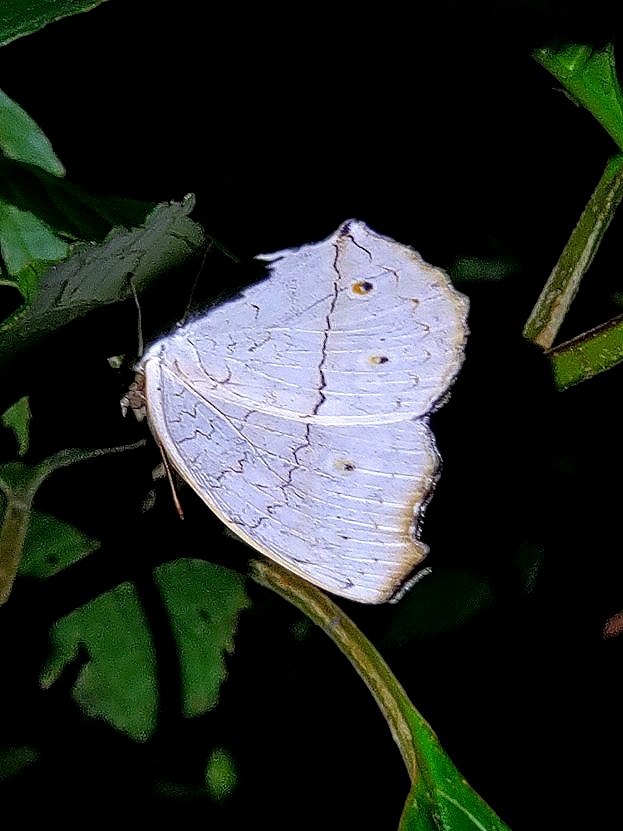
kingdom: Animalia
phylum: Arthropoda
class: Insecta
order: Lepidoptera
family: Nymphalidae
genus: Junonia
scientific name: Junonia atlites
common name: Grey pansy
